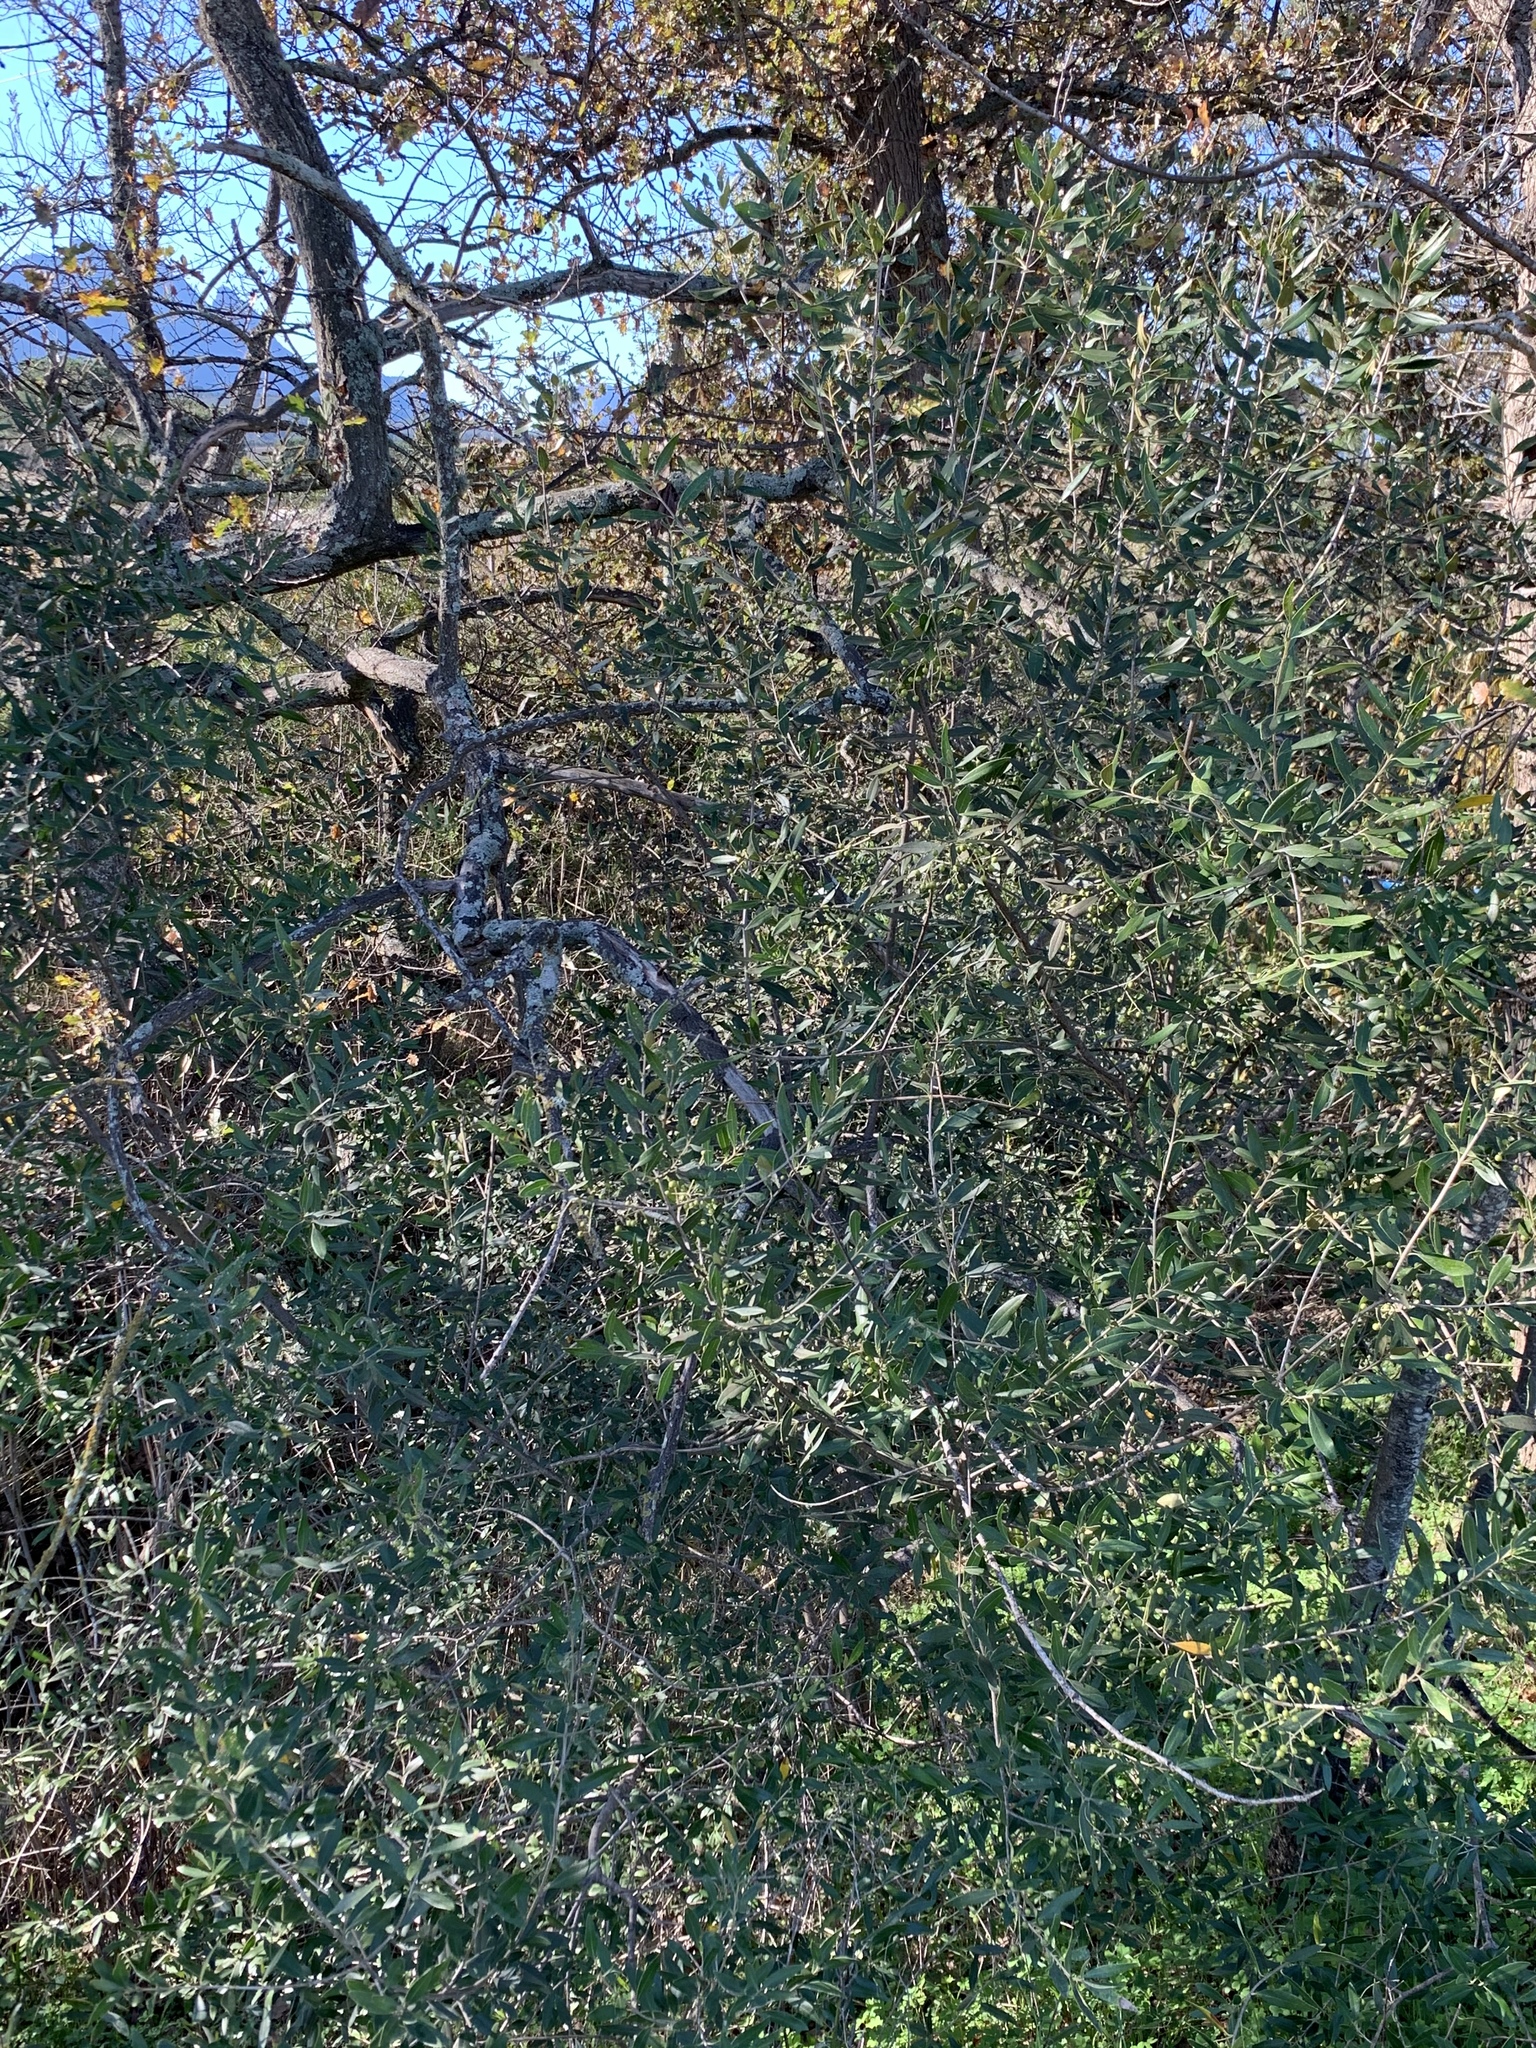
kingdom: Plantae
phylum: Tracheophyta
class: Magnoliopsida
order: Lamiales
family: Oleaceae
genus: Olea
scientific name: Olea europaea
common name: Olive
